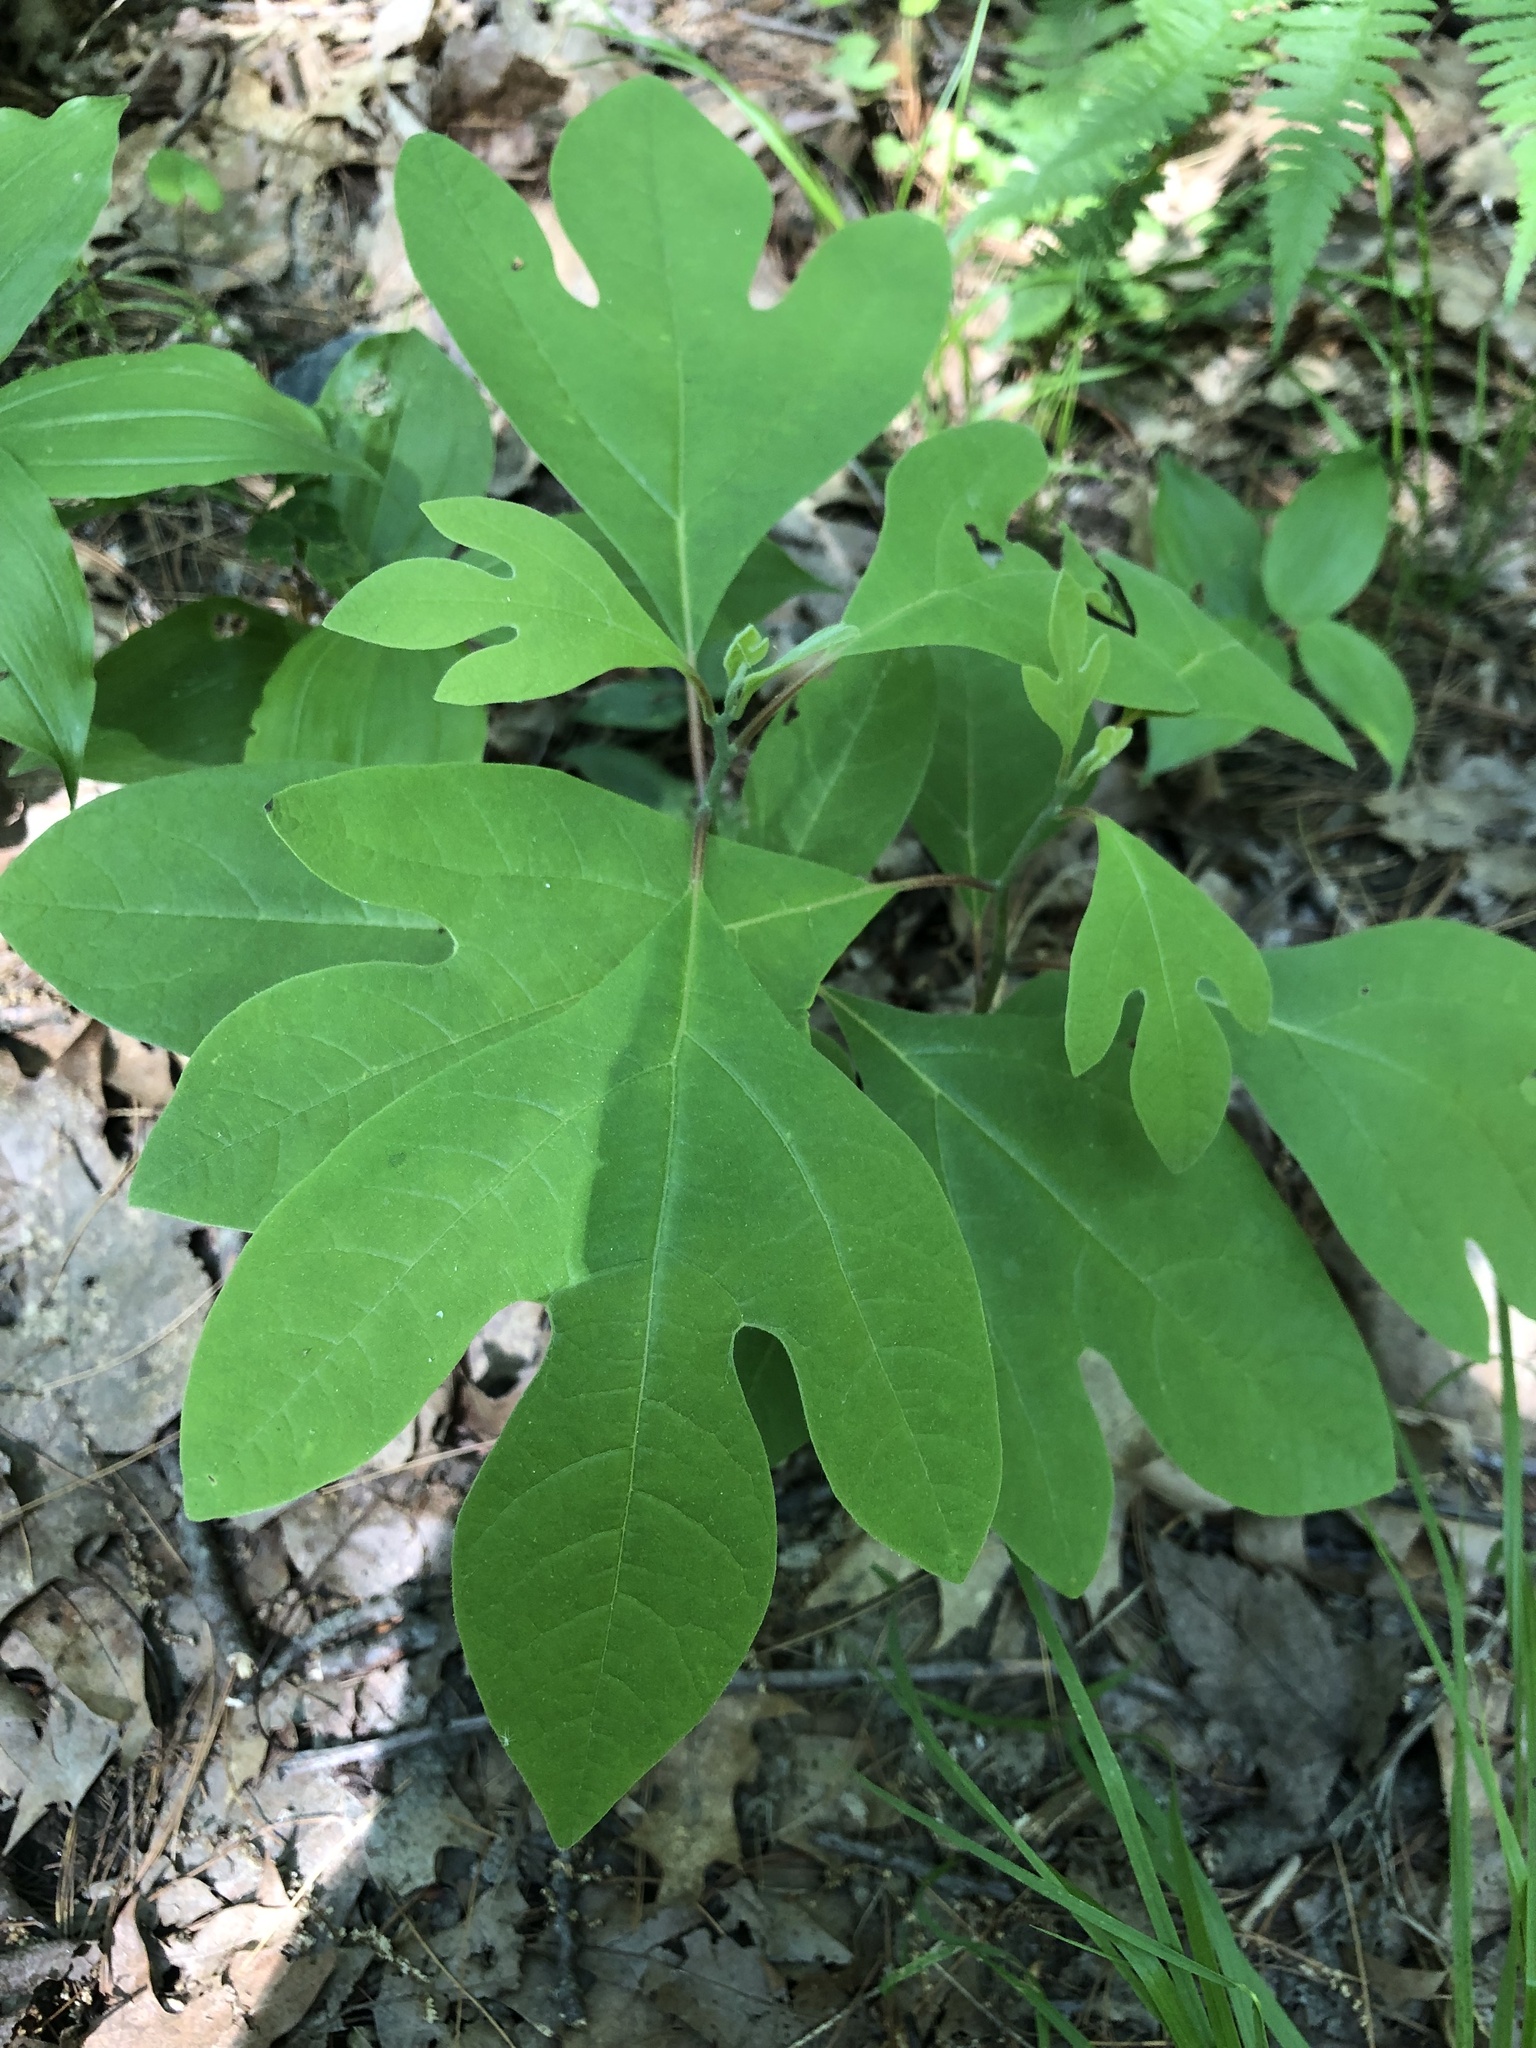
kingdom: Plantae
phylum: Tracheophyta
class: Magnoliopsida
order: Laurales
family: Lauraceae
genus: Sassafras
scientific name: Sassafras albidum
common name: Sassafras
